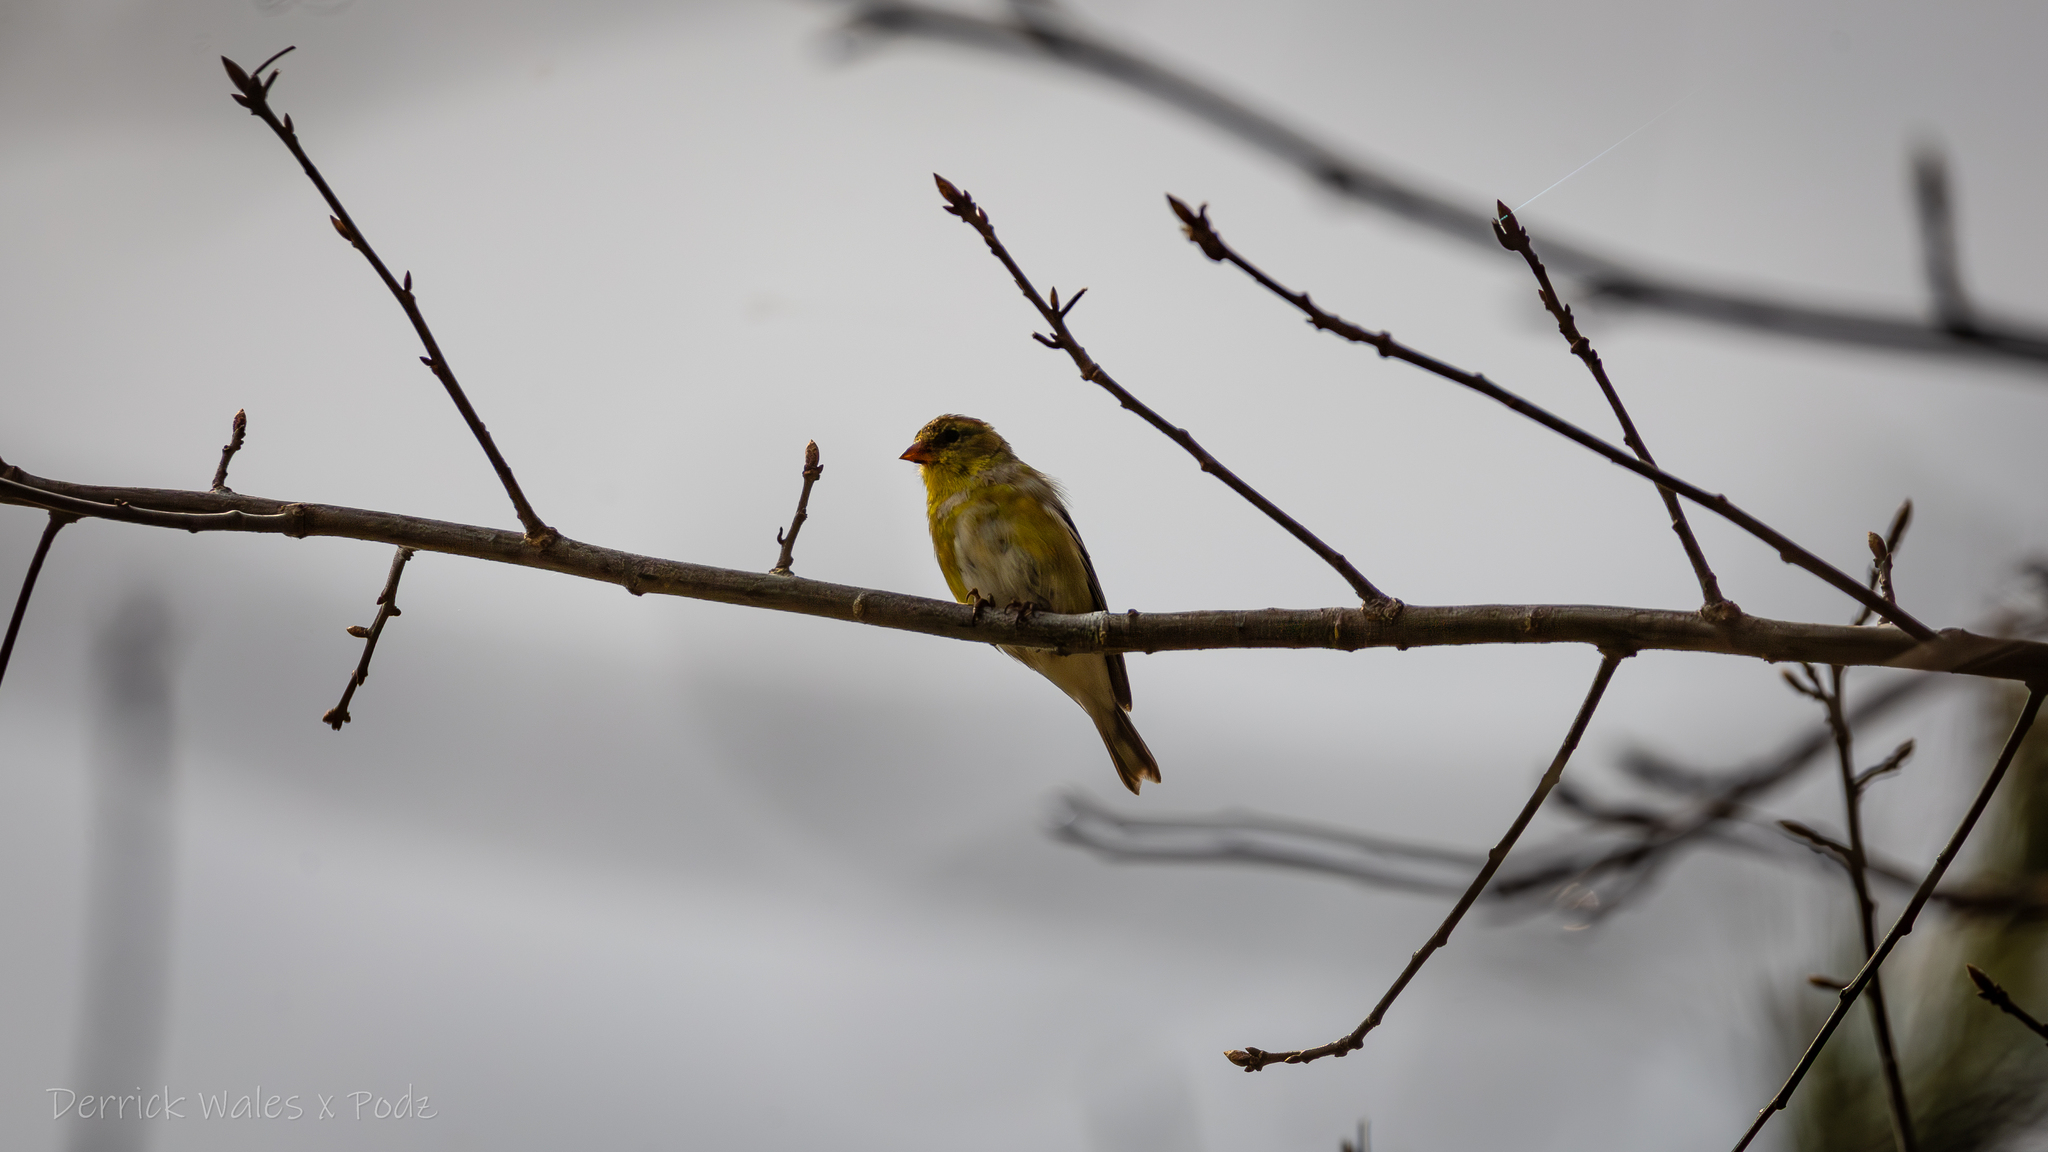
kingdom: Animalia
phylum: Chordata
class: Aves
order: Passeriformes
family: Fringillidae
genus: Spinus
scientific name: Spinus tristis
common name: American goldfinch
